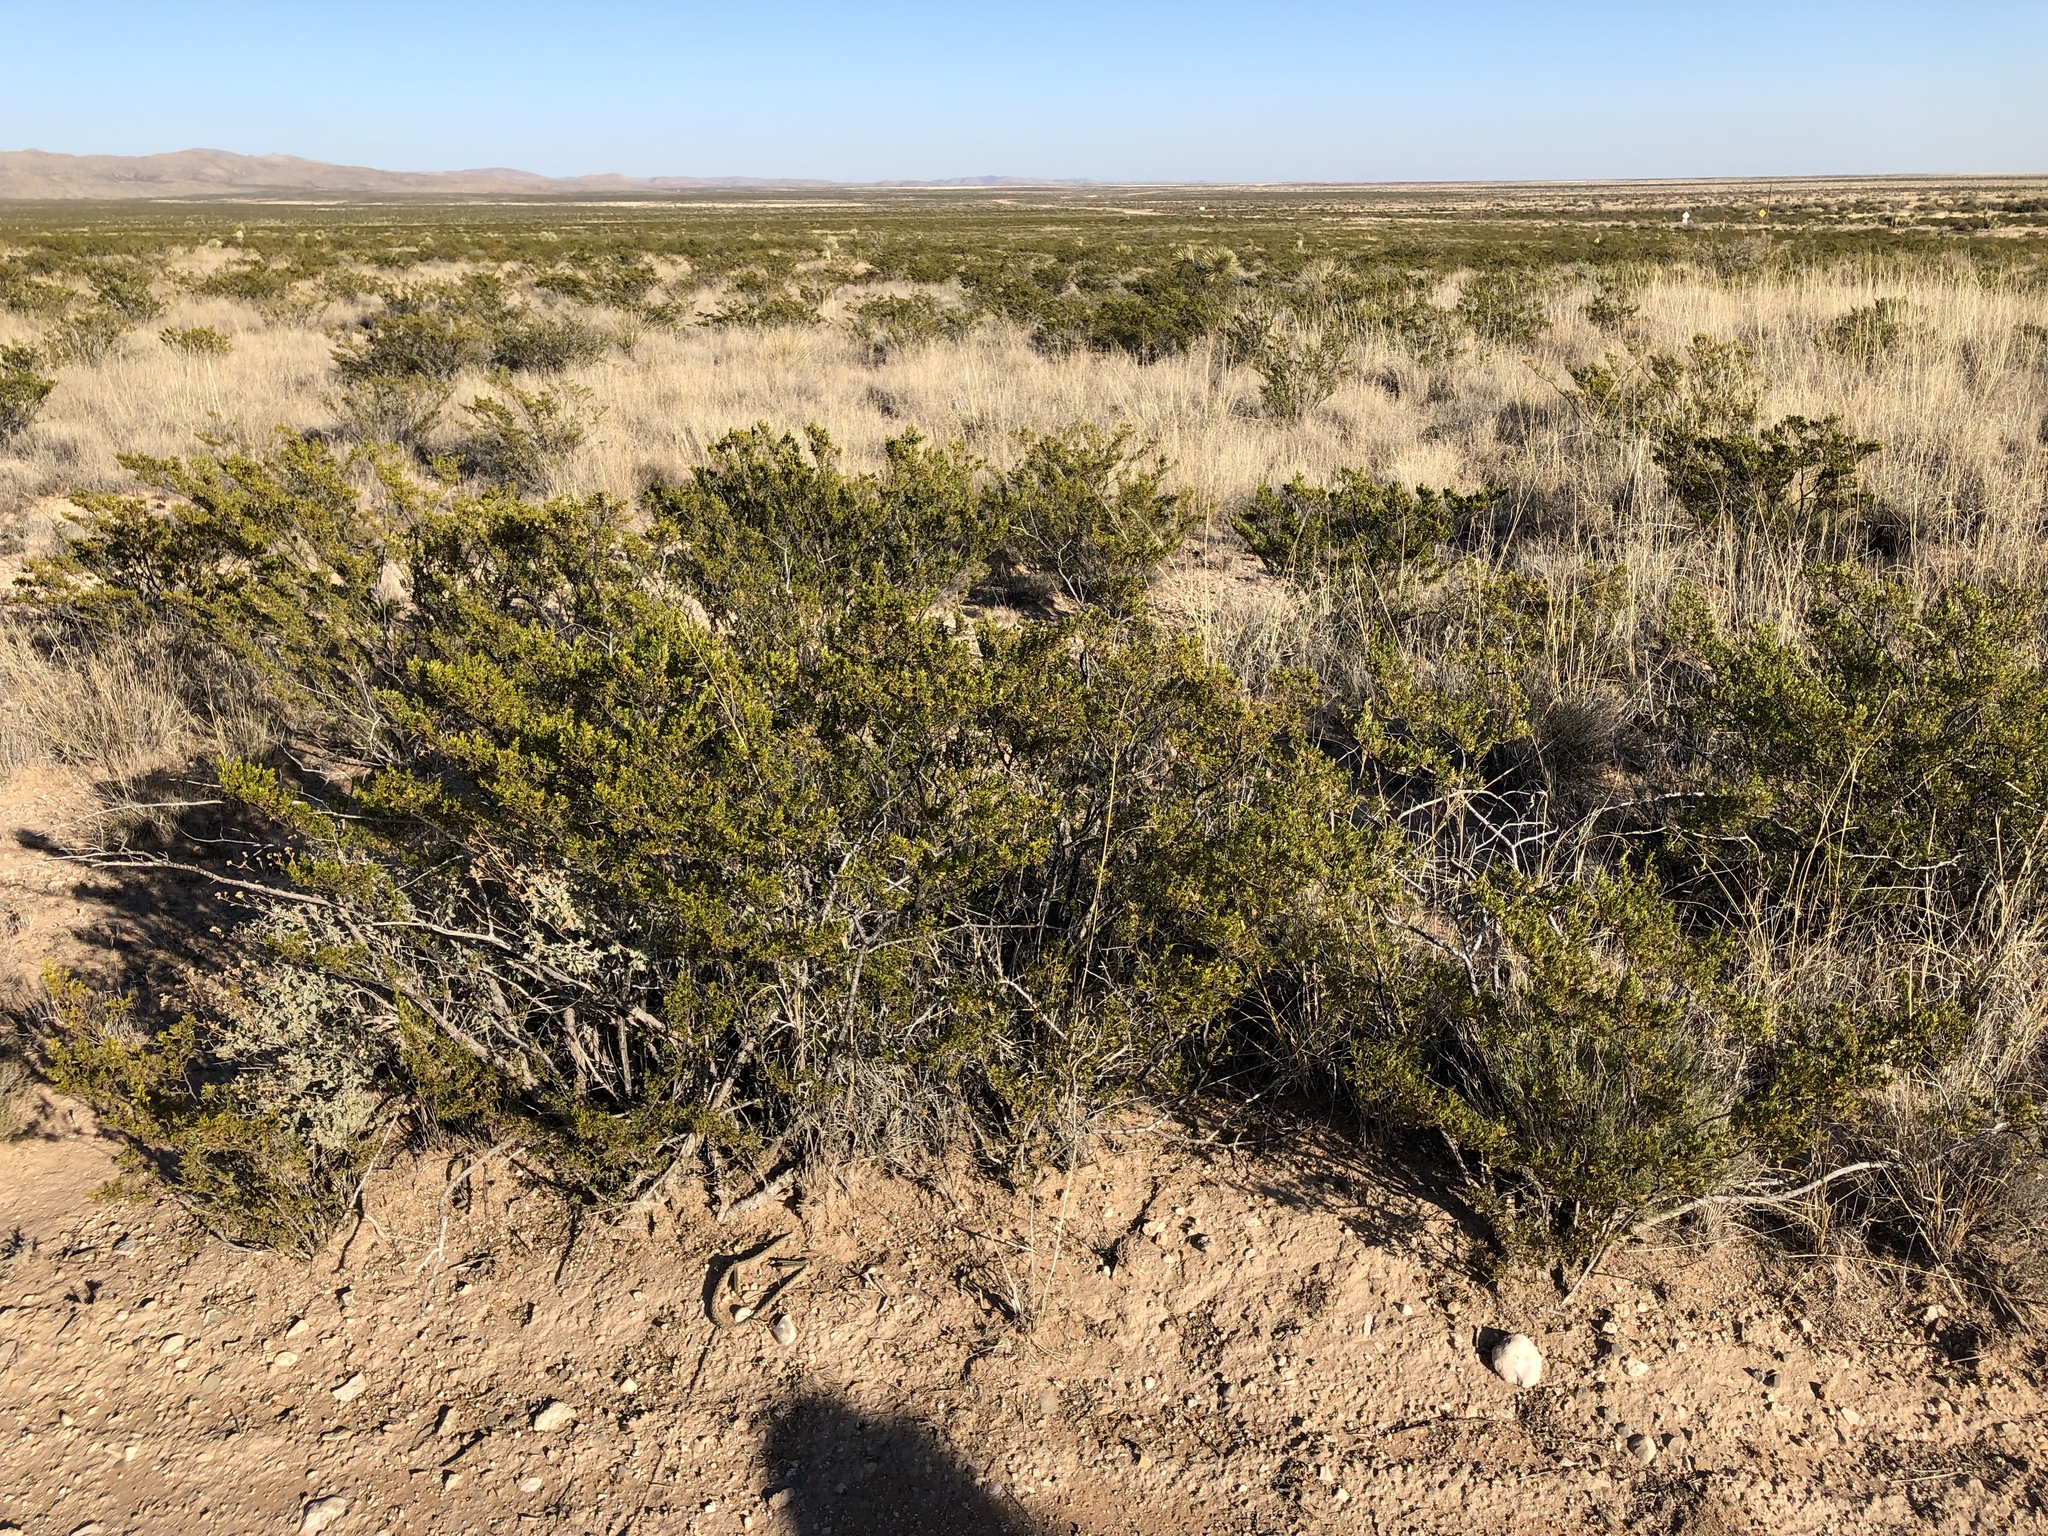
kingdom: Plantae
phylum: Tracheophyta
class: Magnoliopsida
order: Zygophyllales
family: Zygophyllaceae
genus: Larrea
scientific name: Larrea tridentata
